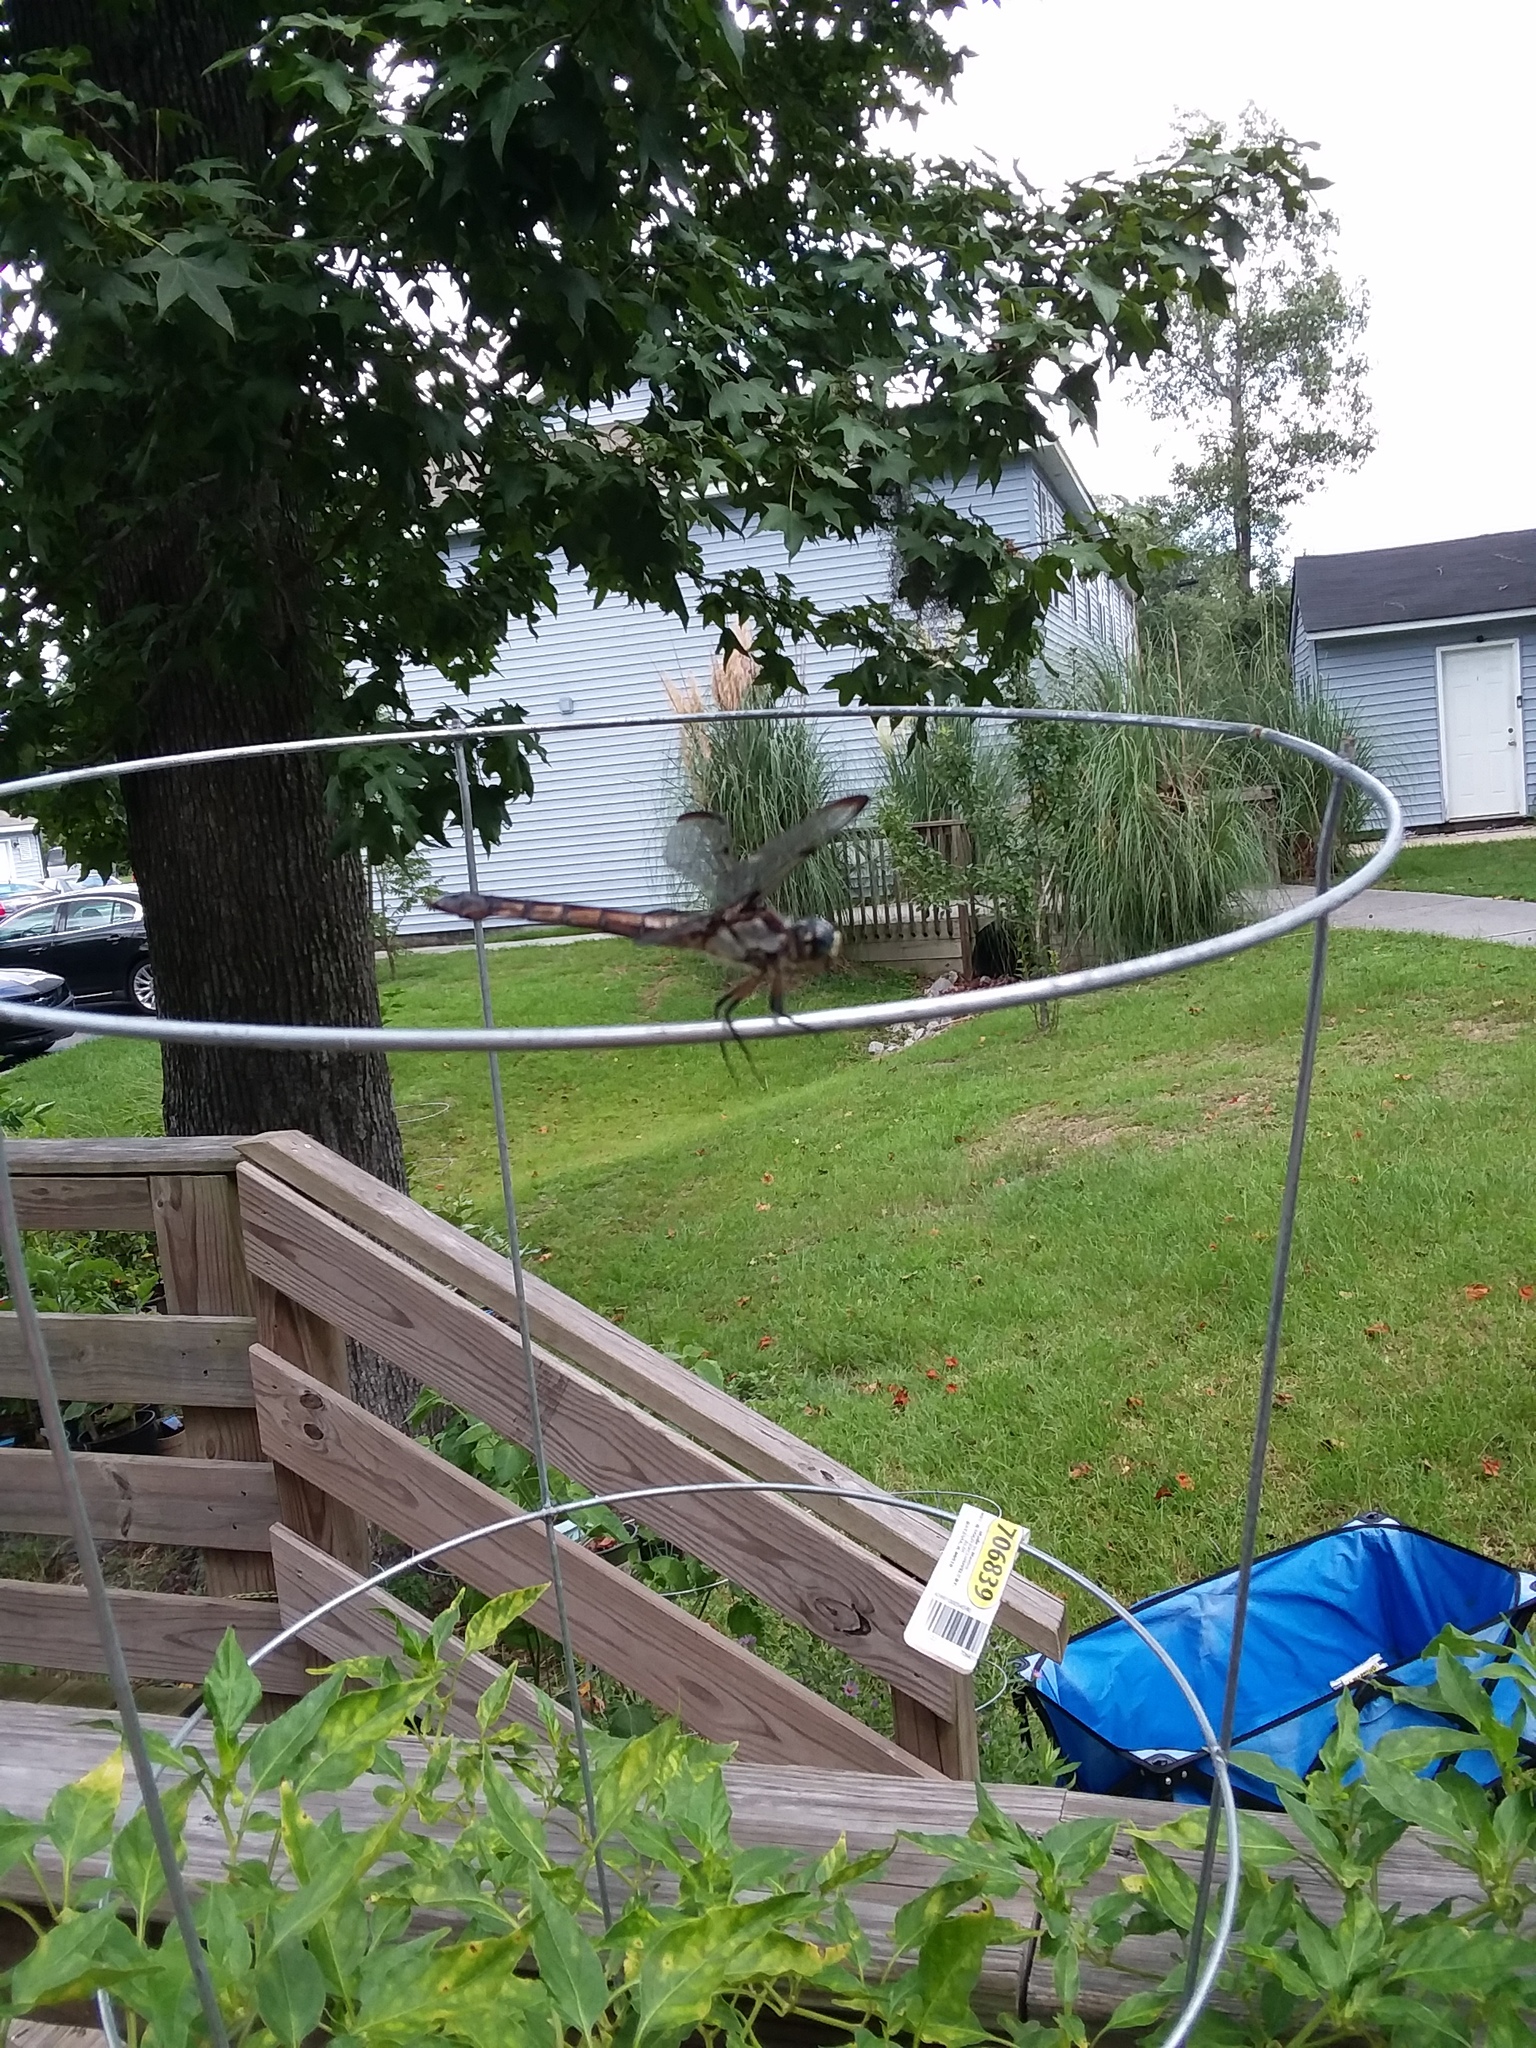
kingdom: Animalia
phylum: Arthropoda
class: Insecta
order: Odonata
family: Libellulidae
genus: Libellula
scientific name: Libellula vibrans
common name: Great blue skimmer
